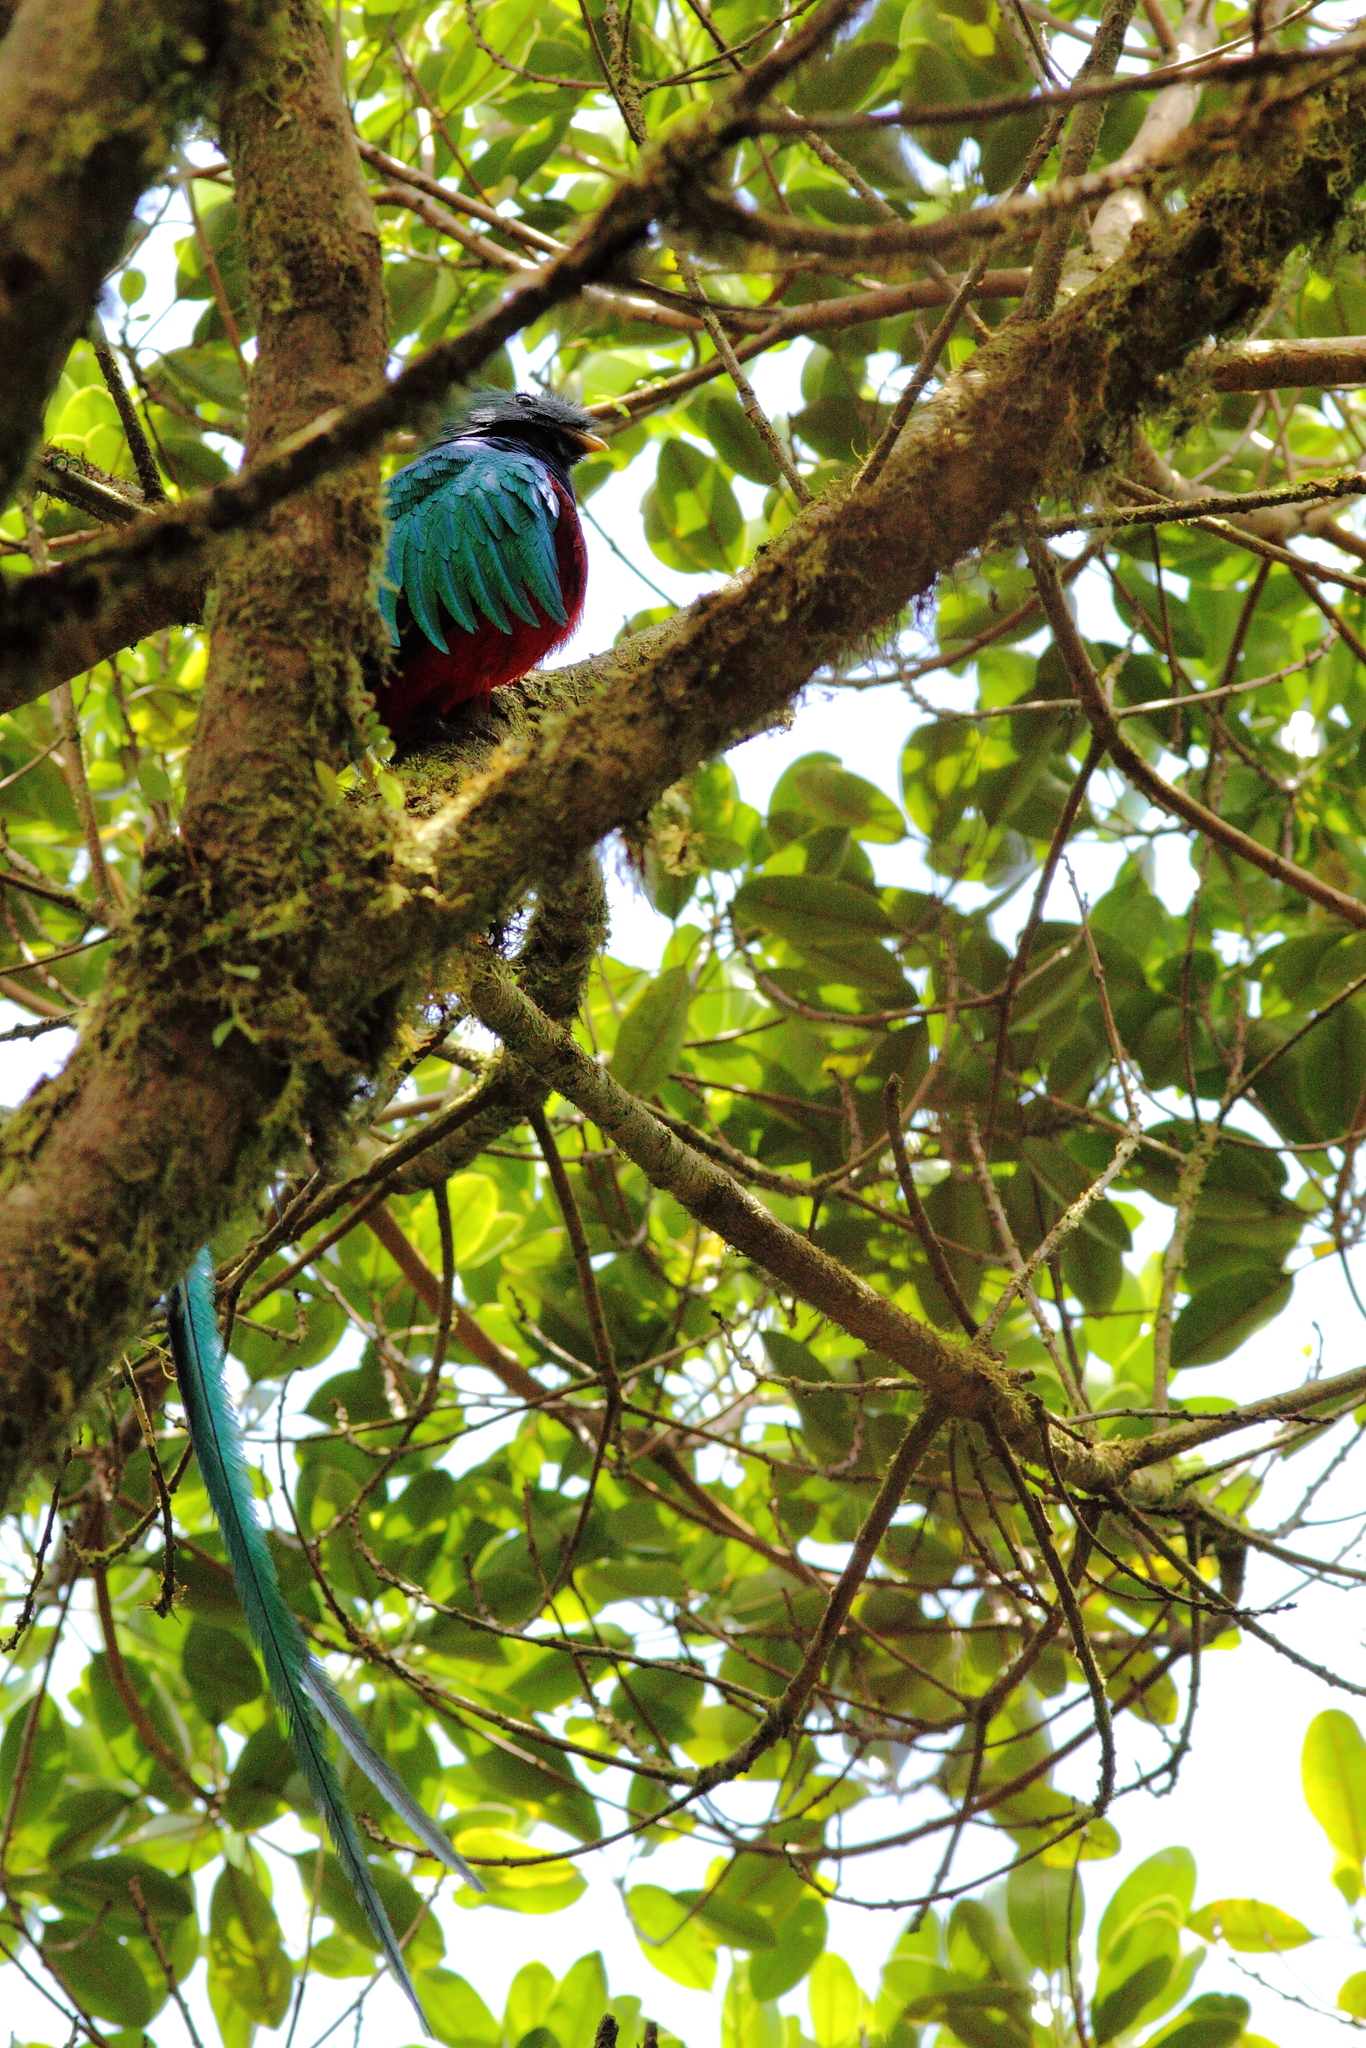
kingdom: Animalia
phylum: Chordata
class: Aves
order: Trogoniformes
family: Trogonidae
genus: Pharomachrus
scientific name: Pharomachrus mocinno
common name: Resplendent quetzal
